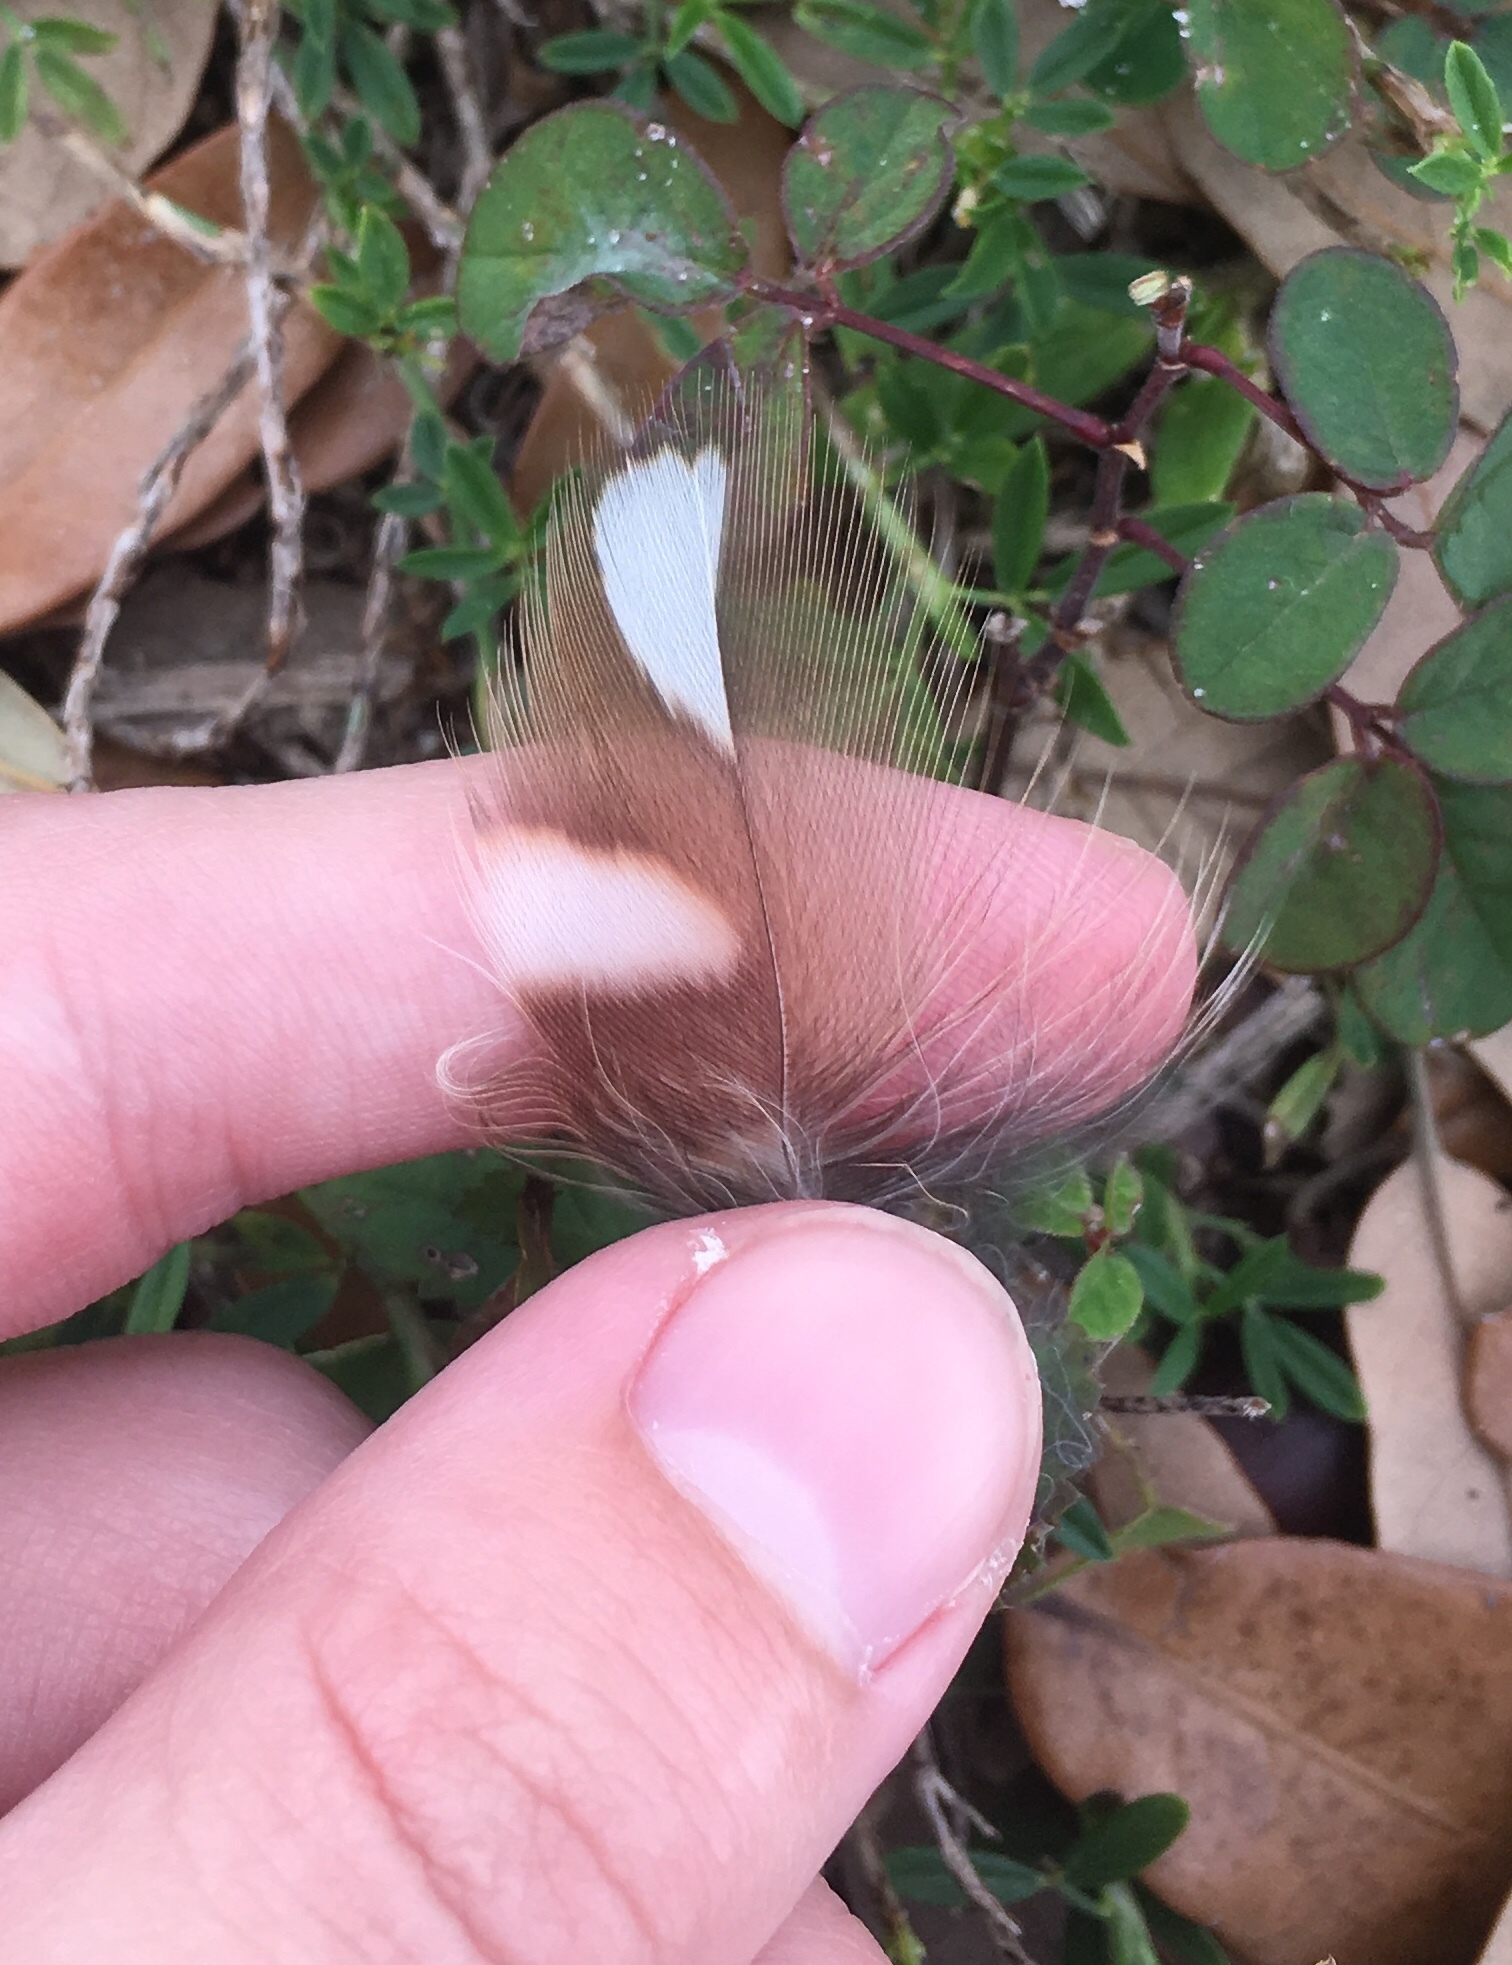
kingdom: Animalia
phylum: Chordata
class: Aves
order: Strigiformes
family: Strigidae
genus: Athene
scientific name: Athene cunicularia
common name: Burrowing owl
